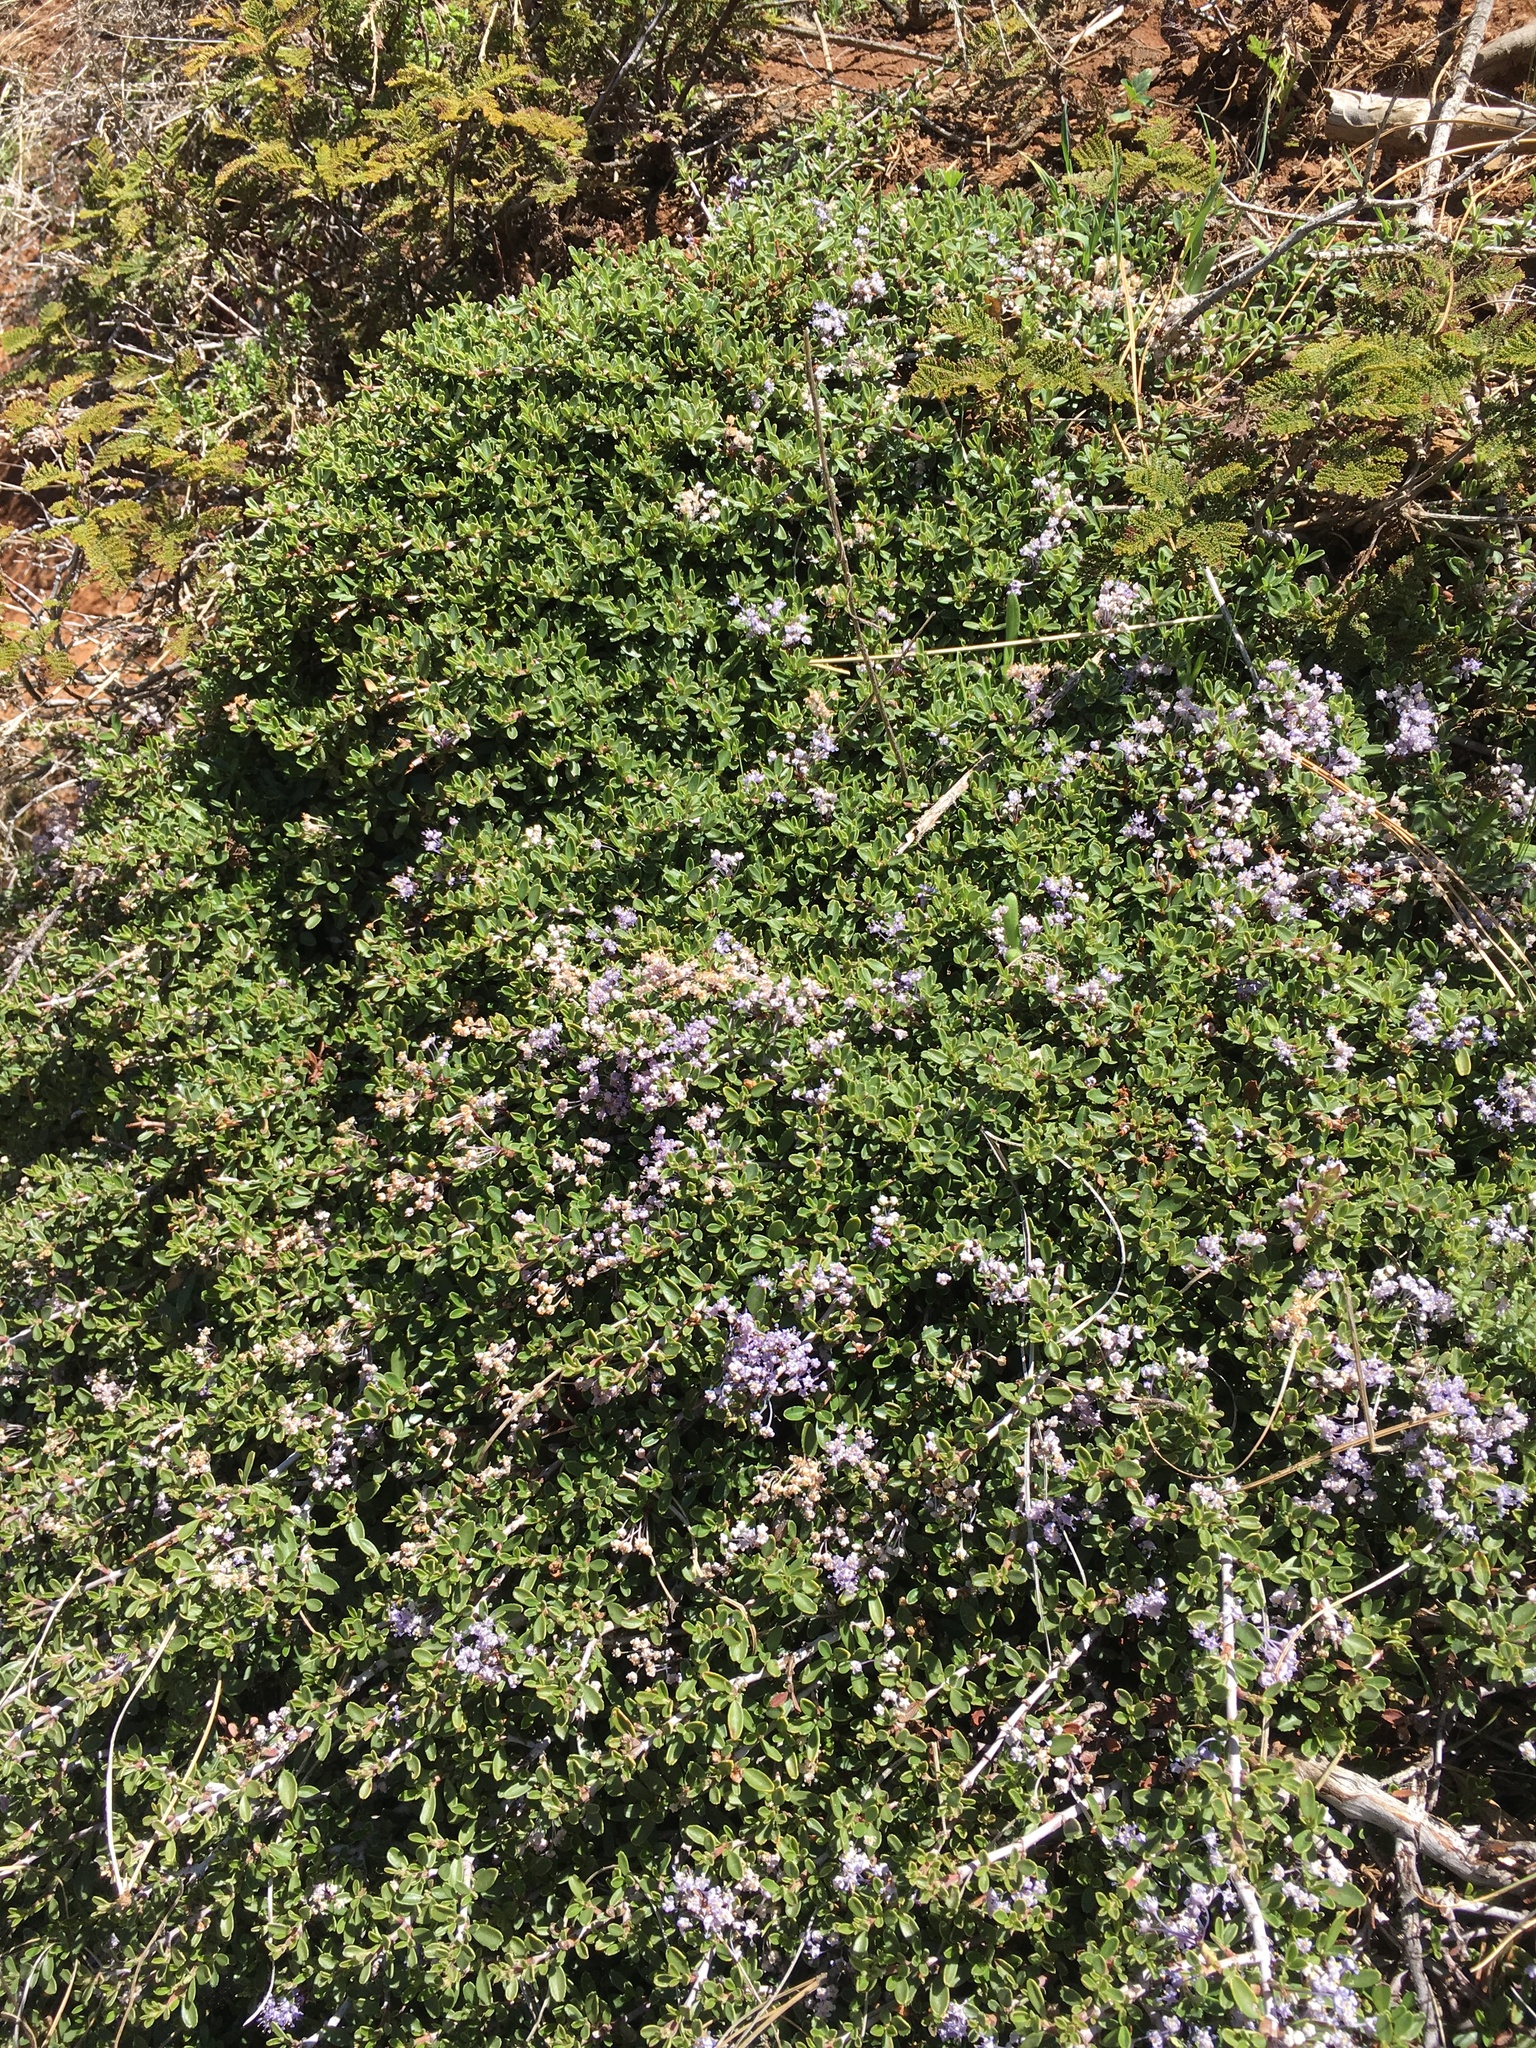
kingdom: Plantae
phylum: Tracheophyta
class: Magnoliopsida
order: Rosales
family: Rhamnaceae
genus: Ceanothus
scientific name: Ceanothus fresnensis
